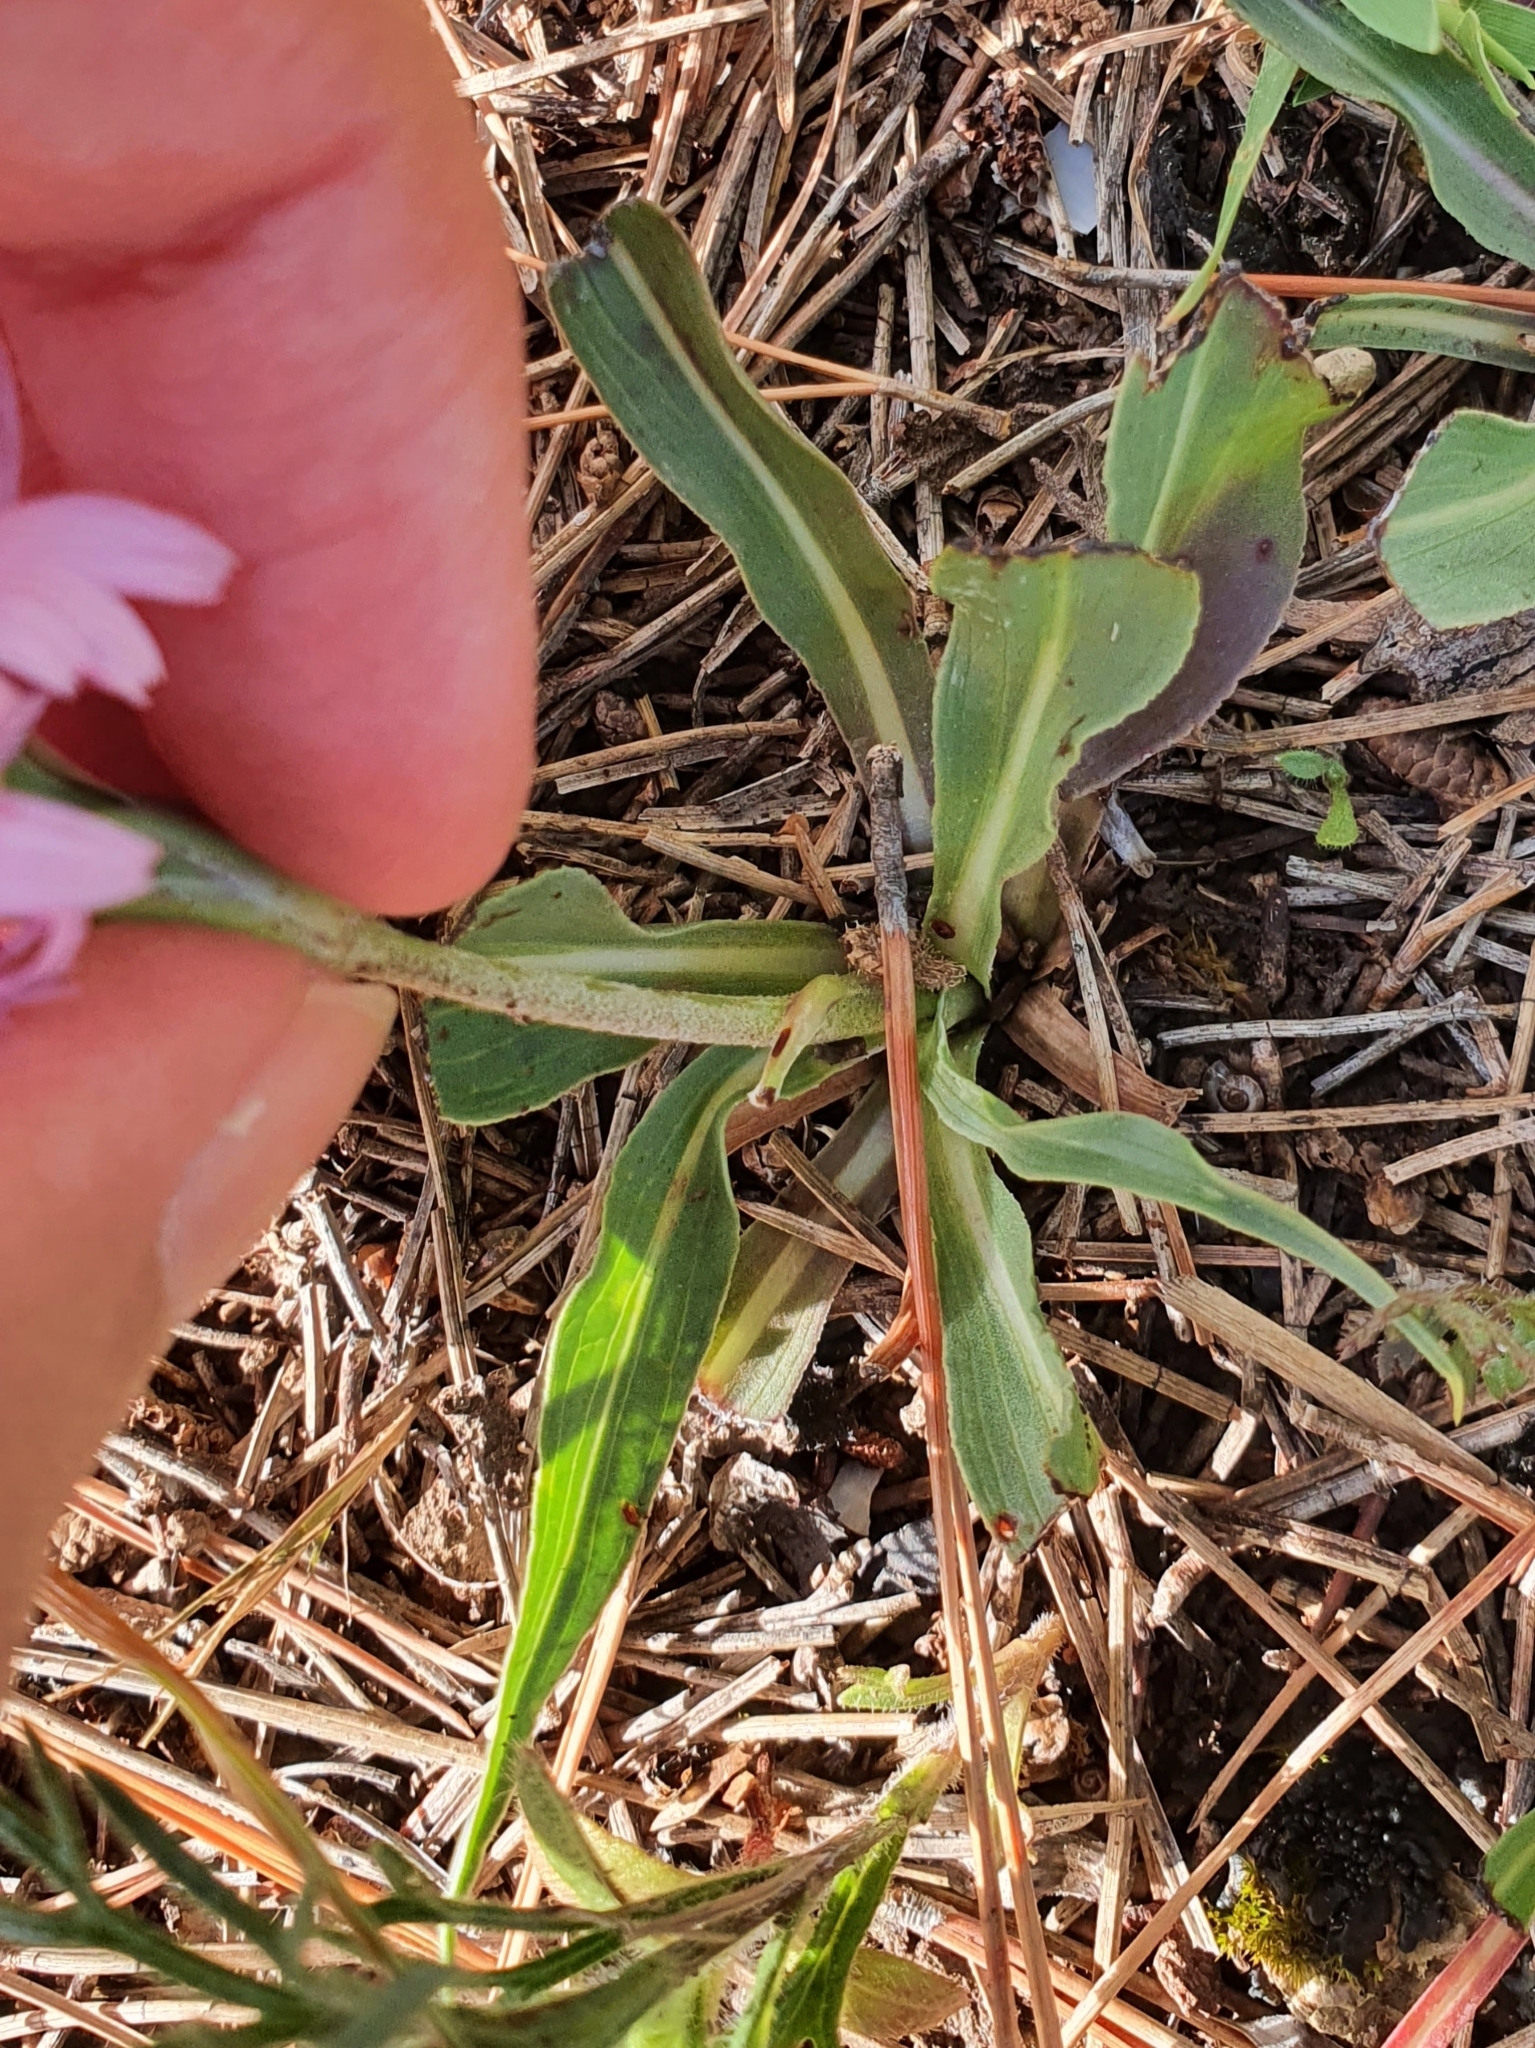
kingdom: Plantae
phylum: Tracheophyta
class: Magnoliopsida
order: Asterales
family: Asteraceae
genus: Pseudopodospermum
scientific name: Pseudopodospermum undulatum
